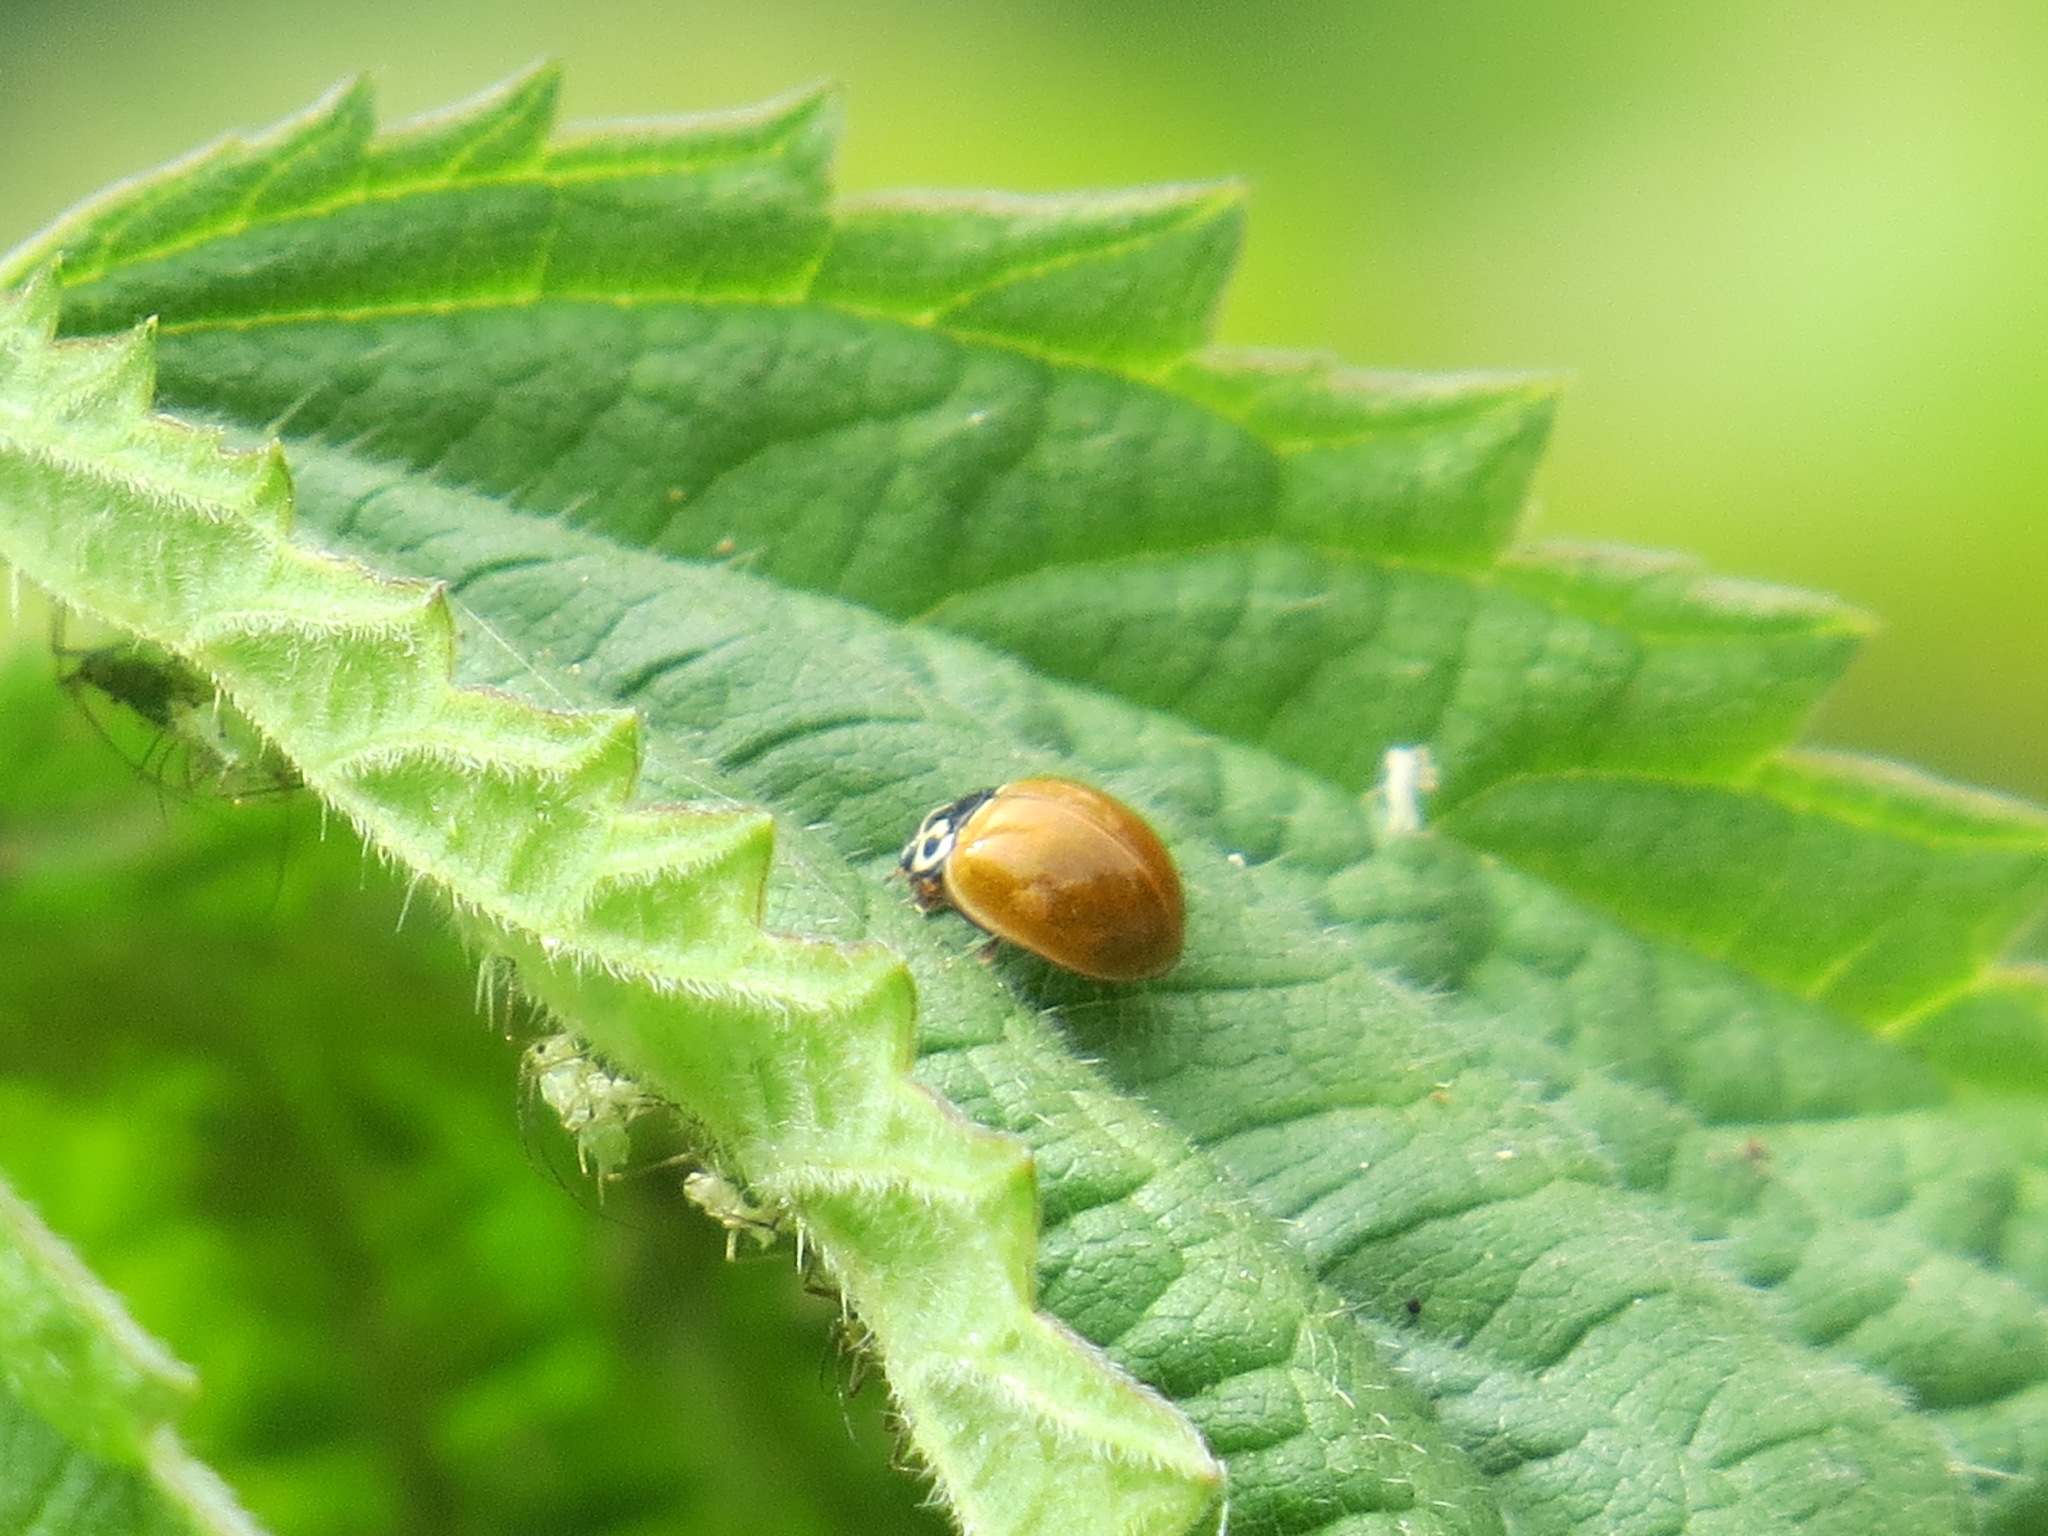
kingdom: Animalia
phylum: Arthropoda
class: Insecta
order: Coleoptera
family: Coccinellidae
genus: Cycloneda
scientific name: Cycloneda polita
